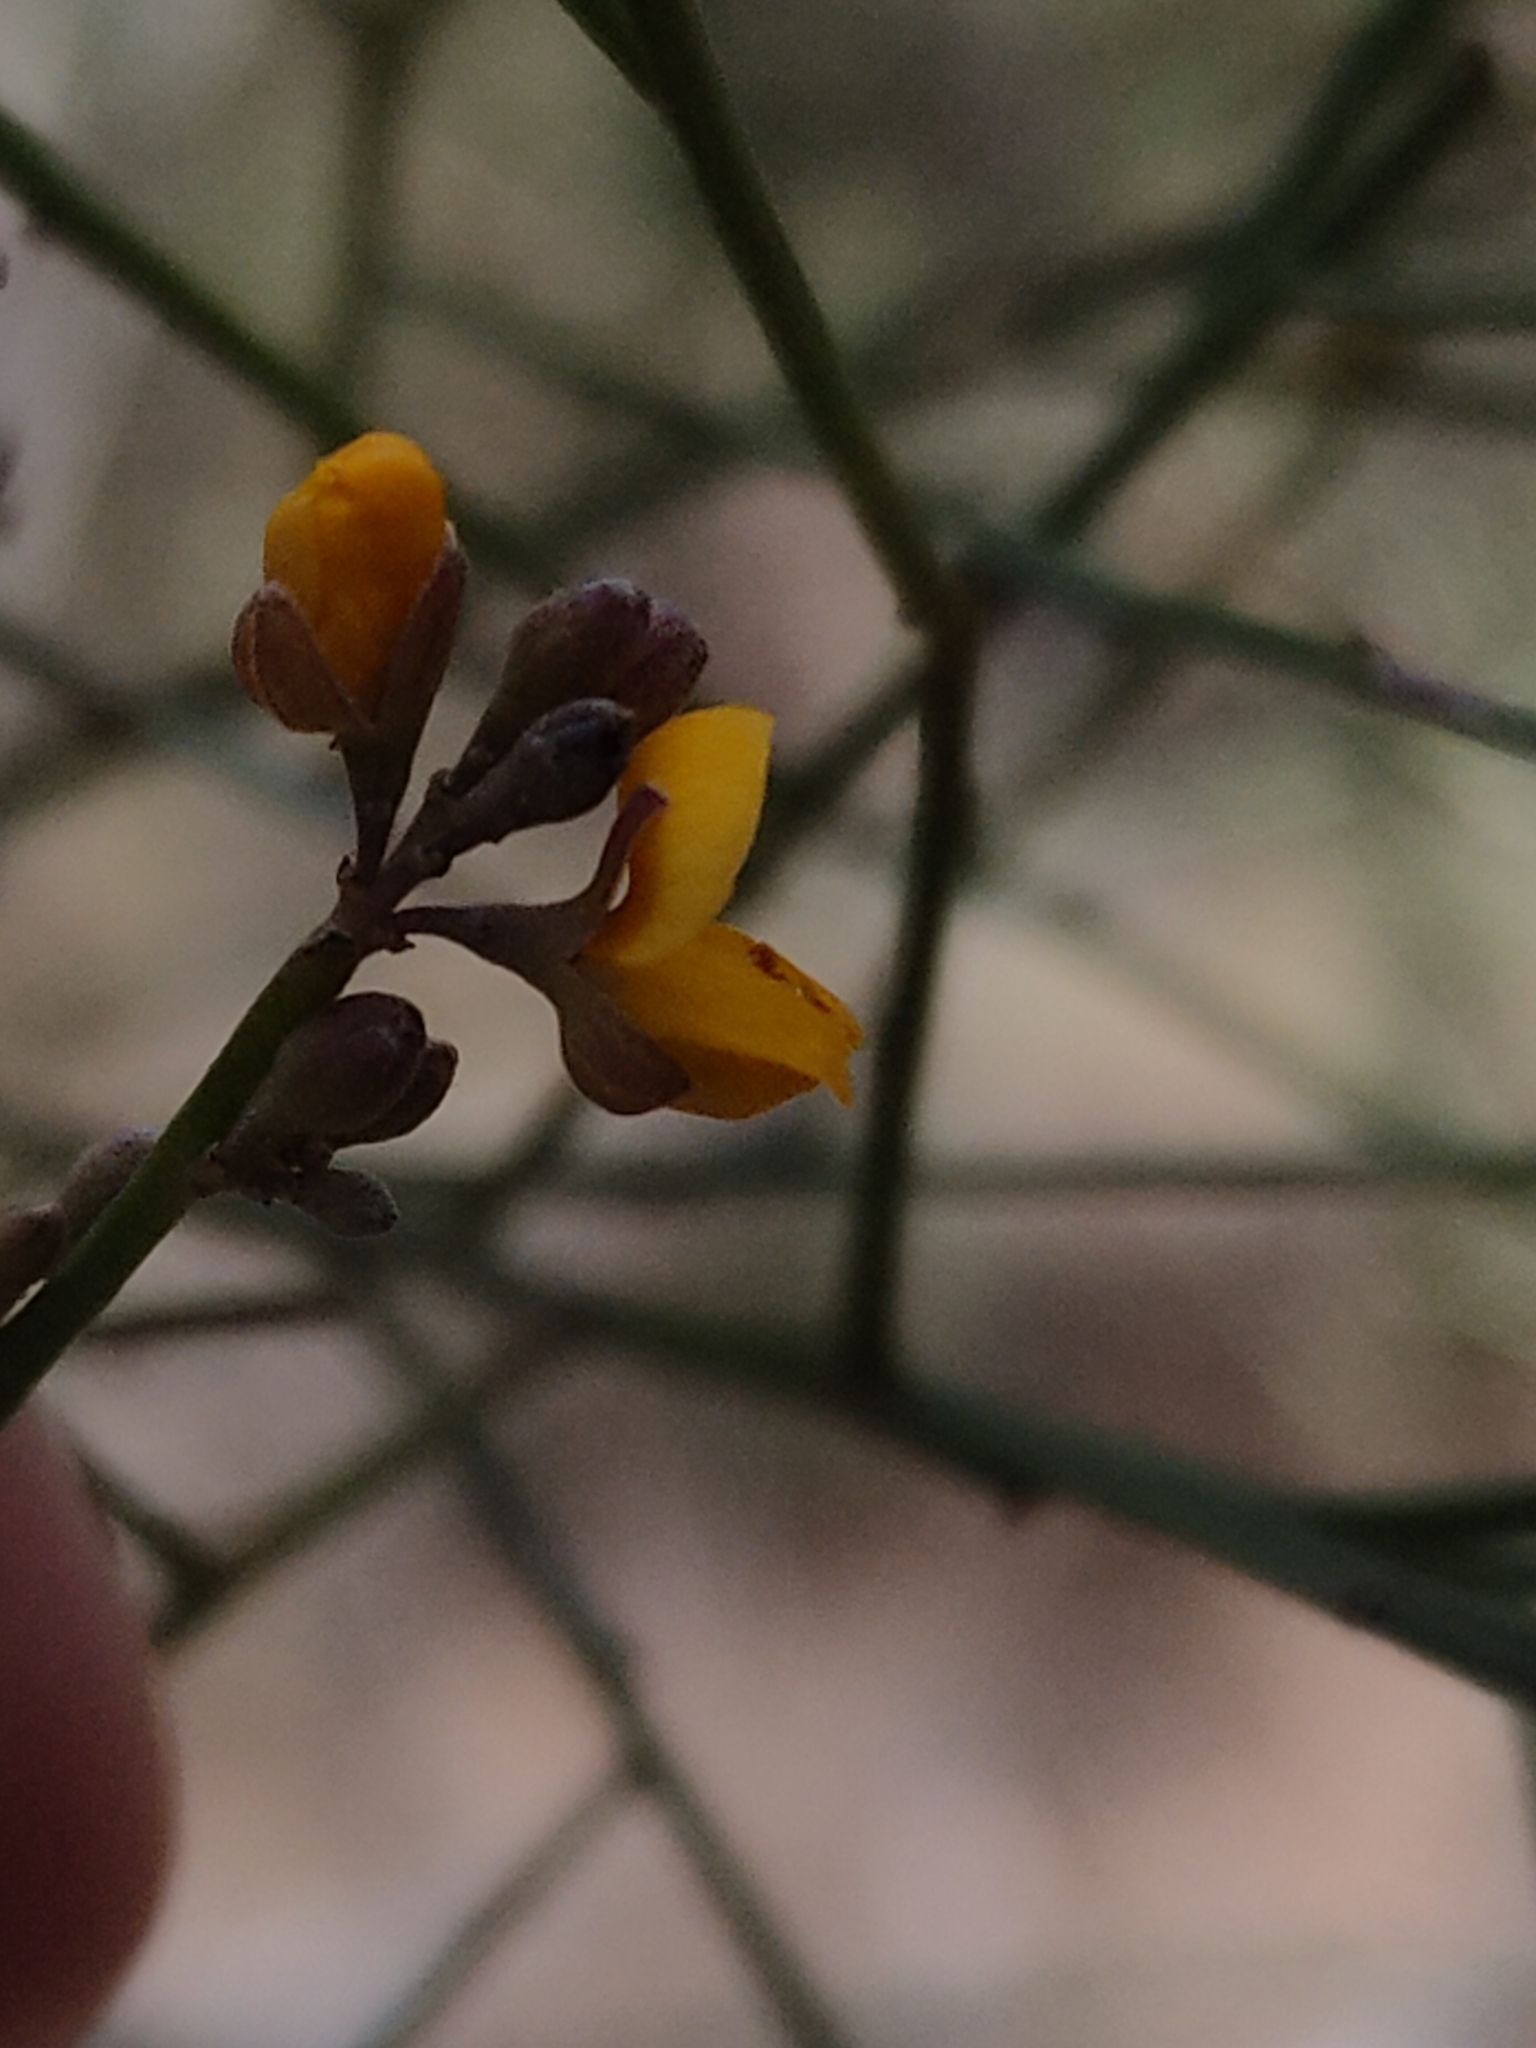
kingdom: Plantae
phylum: Tracheophyta
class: Magnoliopsida
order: Fabales
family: Fabaceae
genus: Jacksonia
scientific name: Jacksonia scoparia
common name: Dogwood
